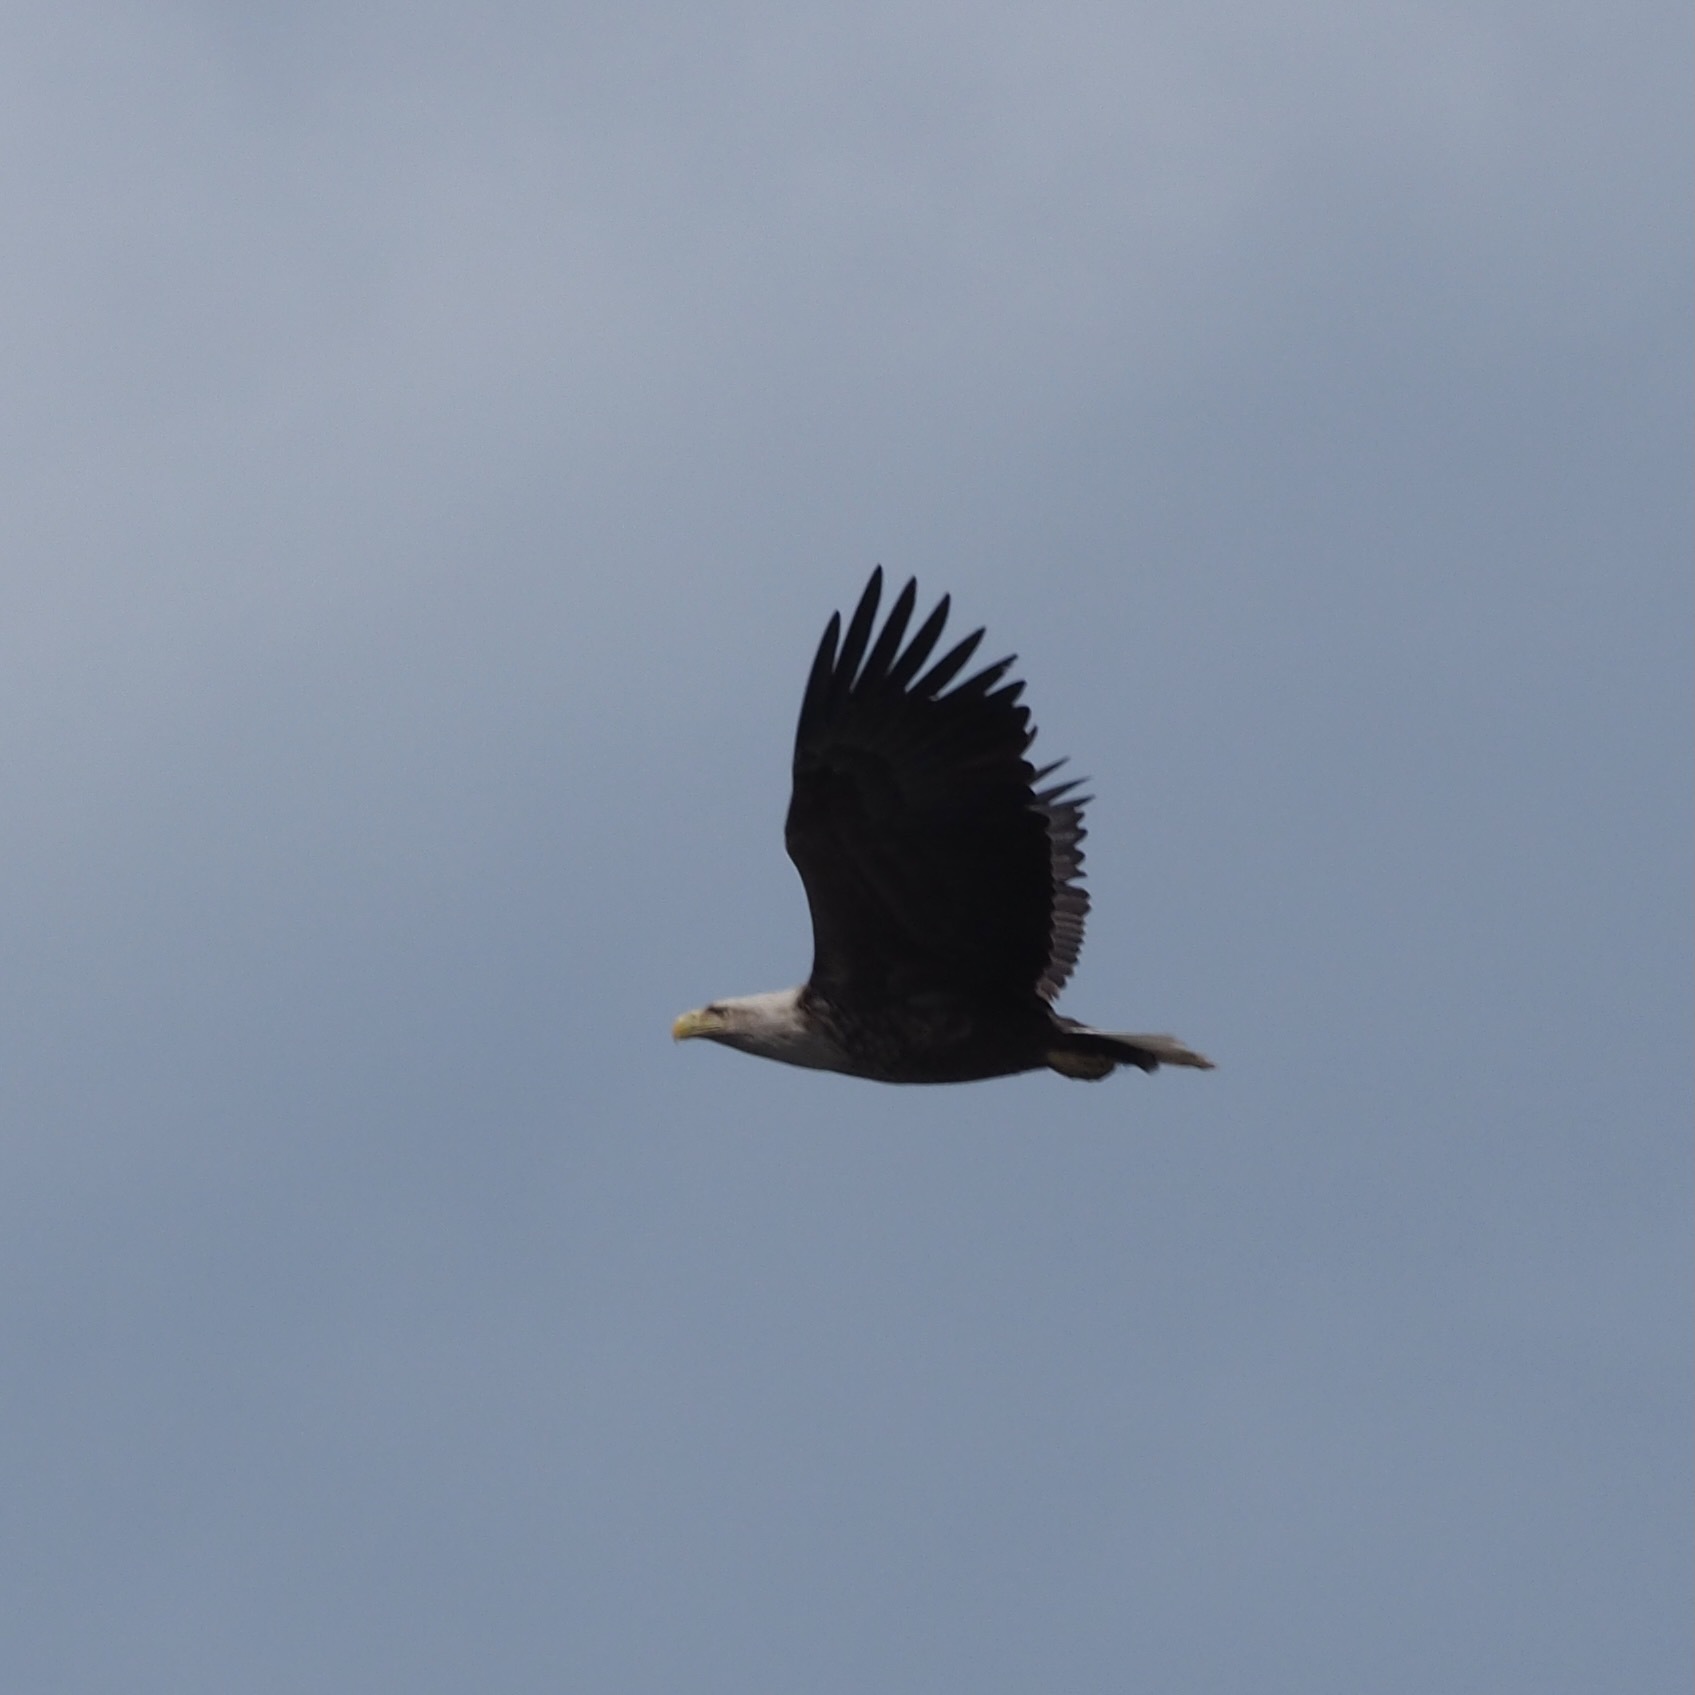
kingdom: Animalia
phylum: Chordata
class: Aves
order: Accipitriformes
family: Accipitridae
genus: Haliaeetus
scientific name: Haliaeetus albicilla
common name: White-tailed eagle
